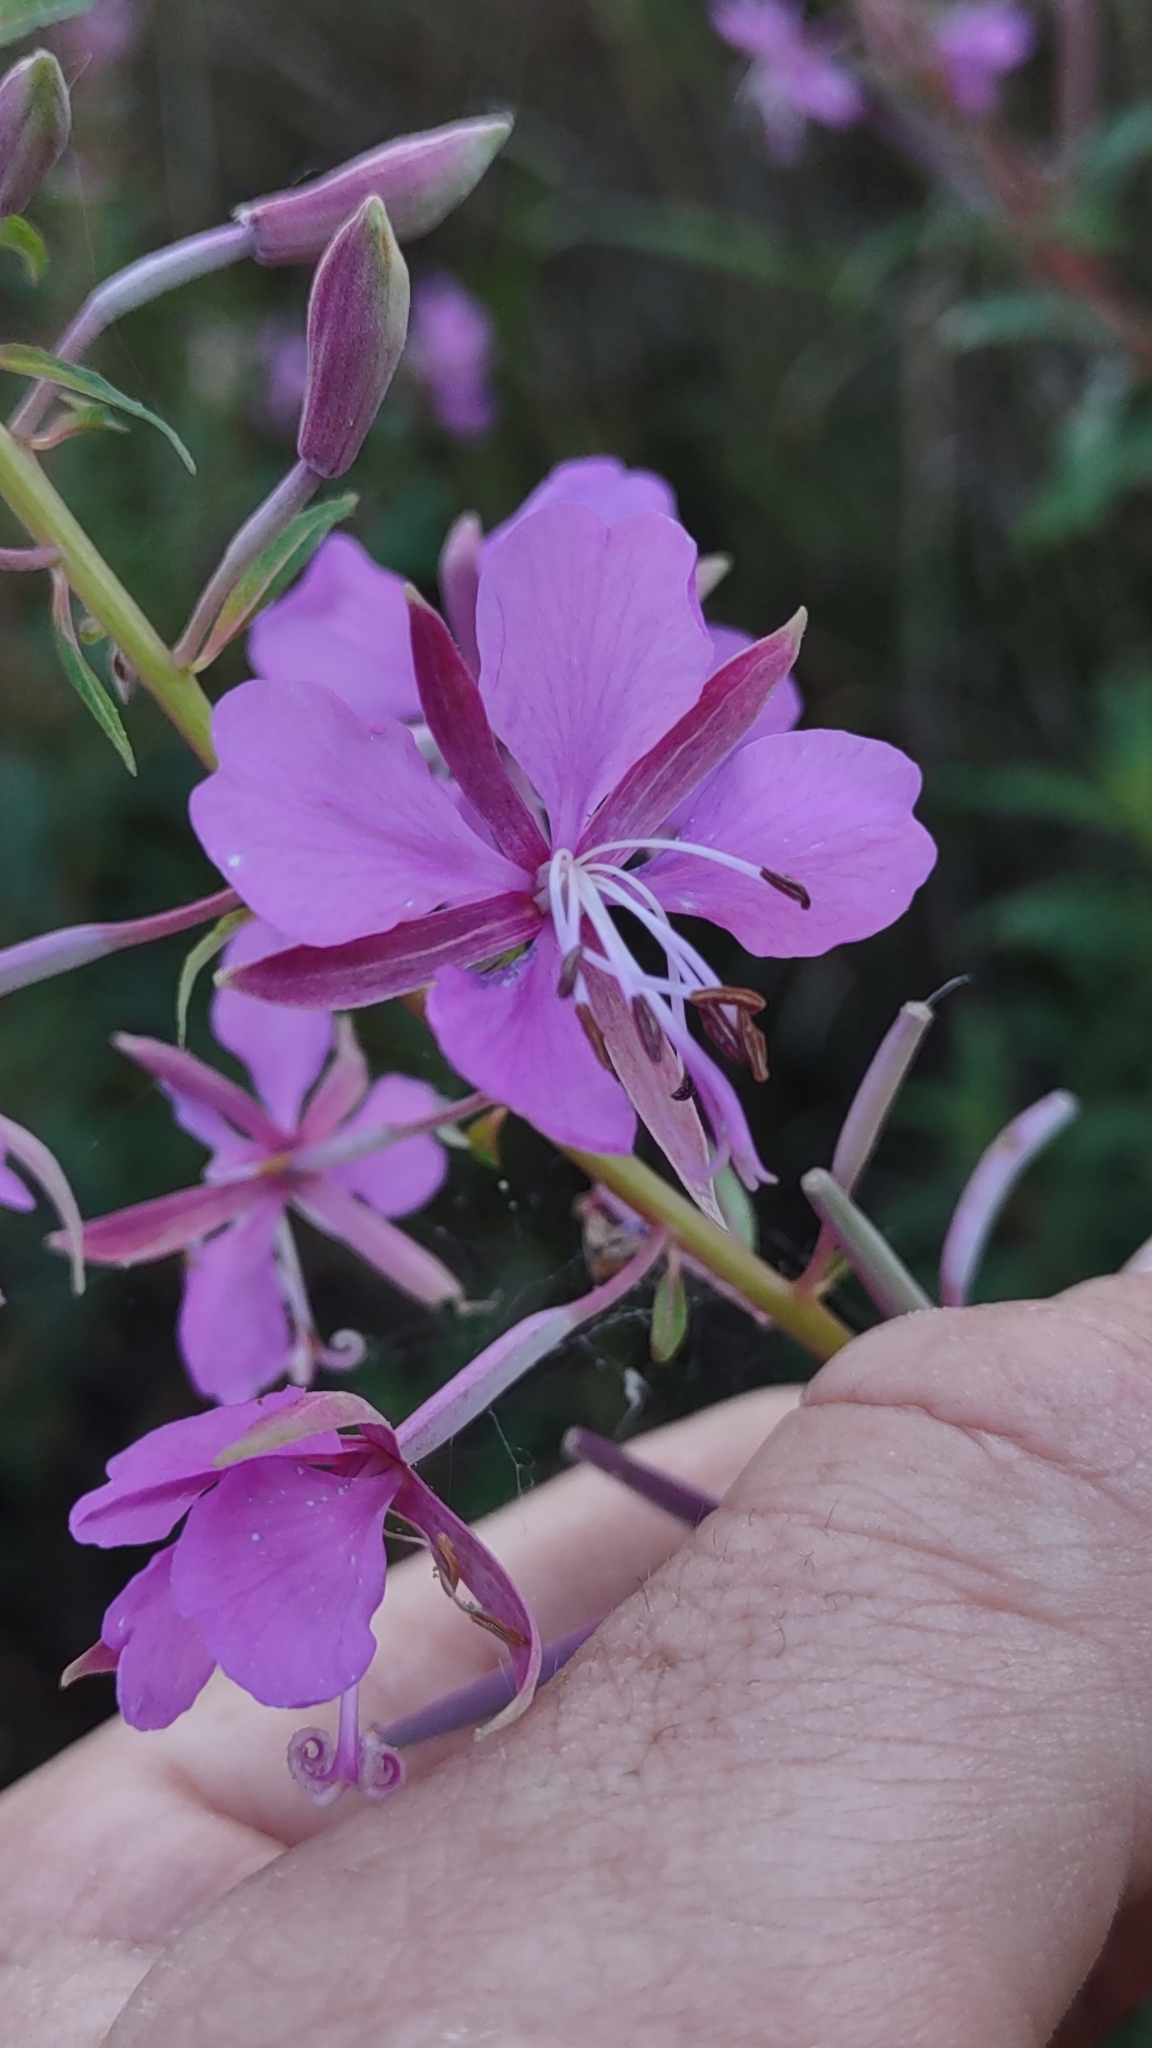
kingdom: Plantae
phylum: Tracheophyta
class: Magnoliopsida
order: Myrtales
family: Onagraceae
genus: Chamaenerion
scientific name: Chamaenerion angustifolium
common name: Fireweed
